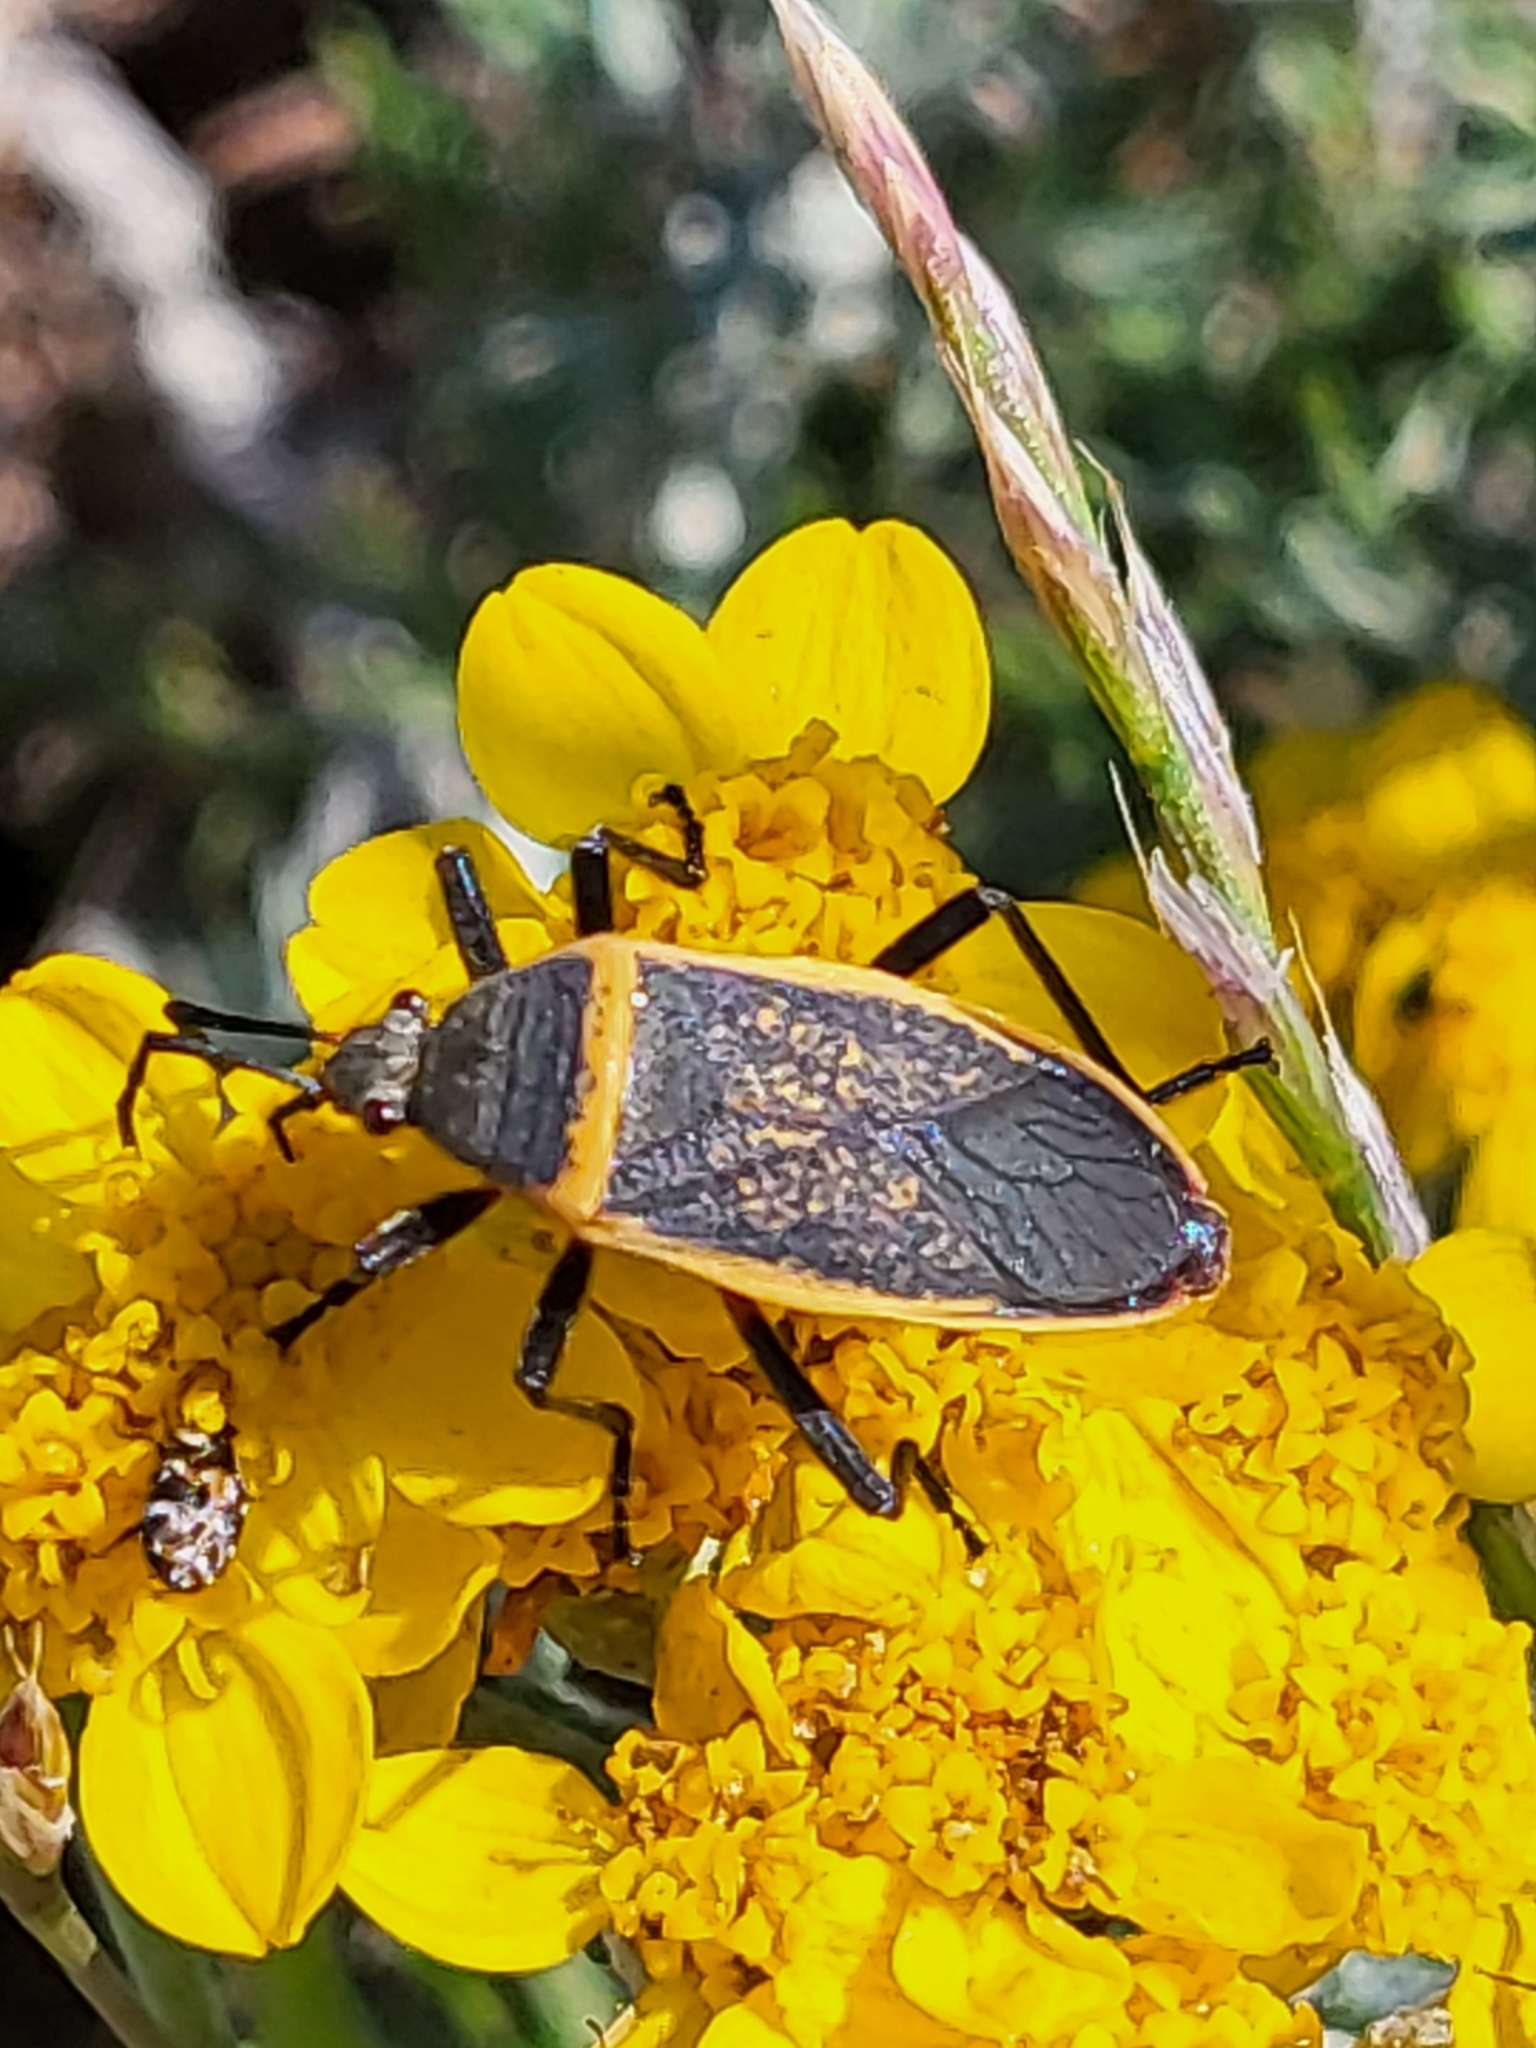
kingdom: Animalia
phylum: Arthropoda
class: Insecta
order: Hemiptera
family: Largidae
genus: Largus
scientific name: Largus californicus
